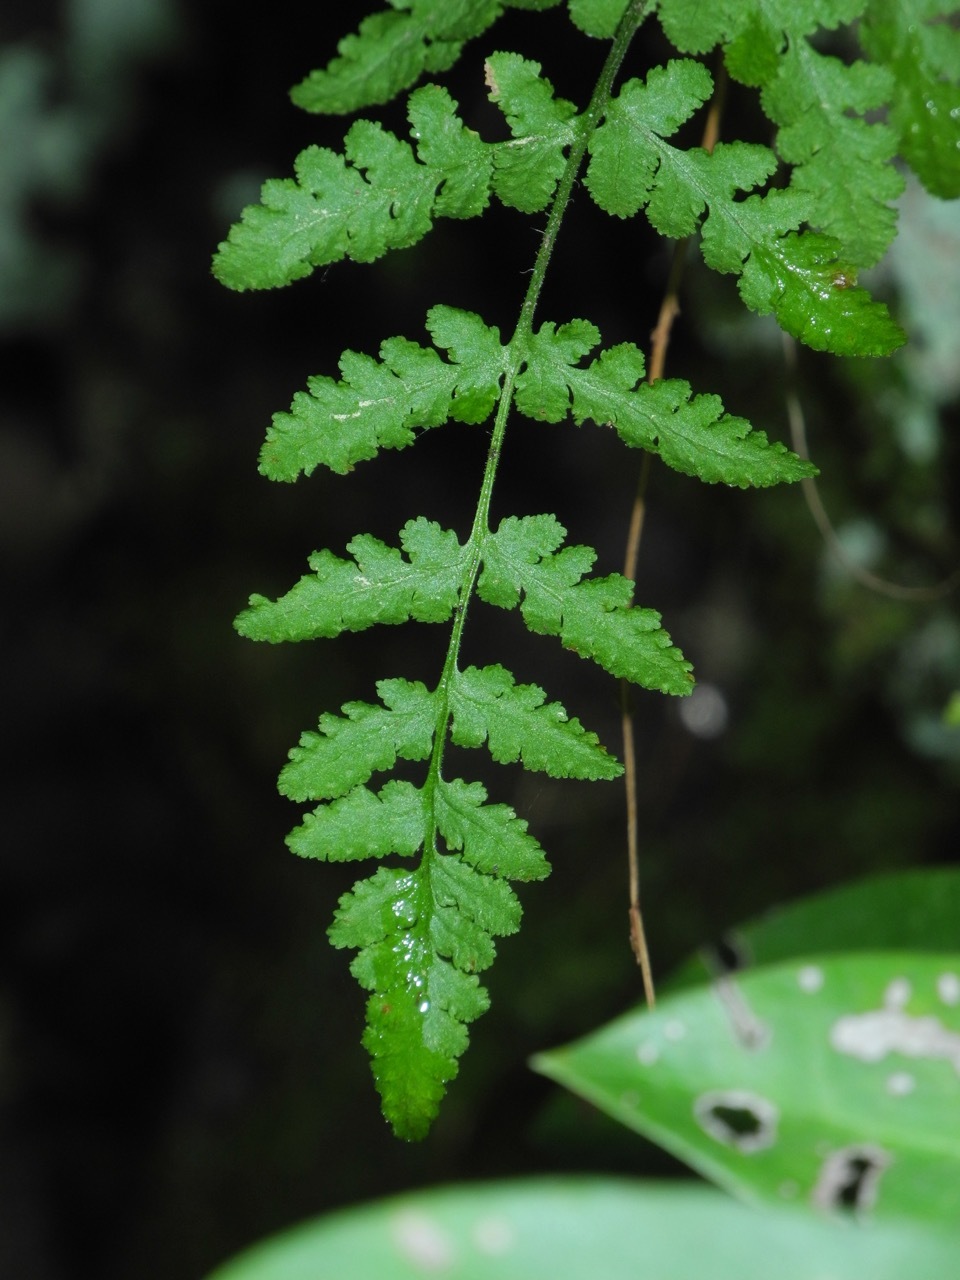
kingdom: Plantae
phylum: Tracheophyta
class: Polypodiopsida
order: Polypodiales
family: Woodsiaceae
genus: Physematium
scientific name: Physematium obtusum
